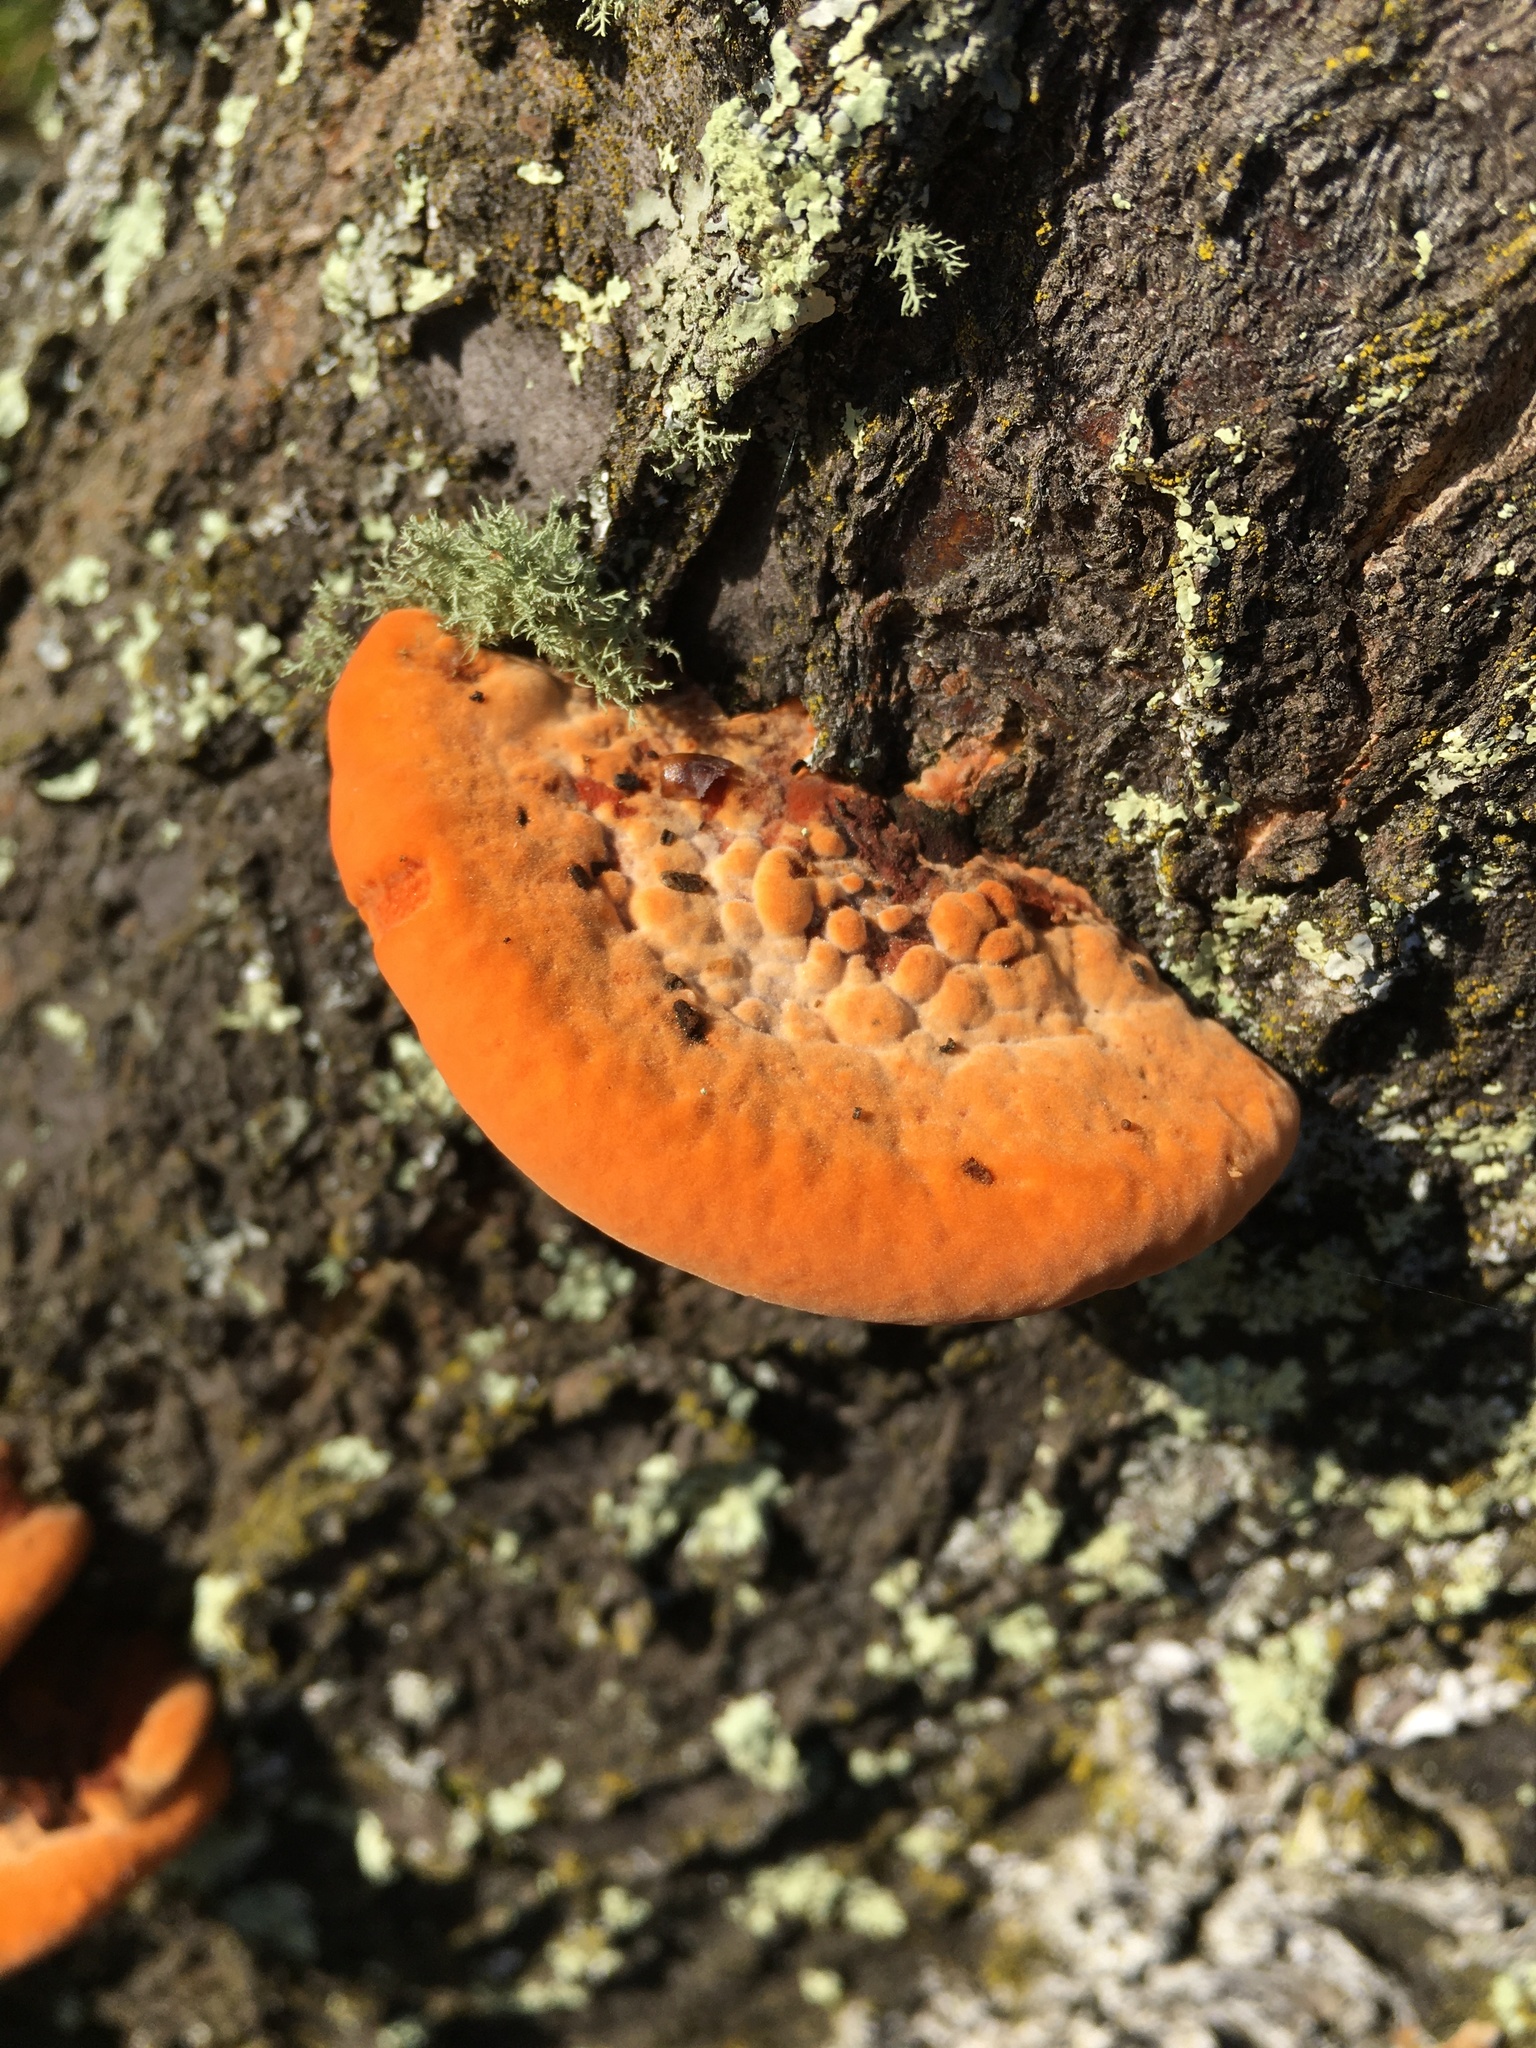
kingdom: Fungi
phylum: Basidiomycota
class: Agaricomycetes
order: Polyporales
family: Polyporaceae
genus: Trametes
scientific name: Trametes coccinea
